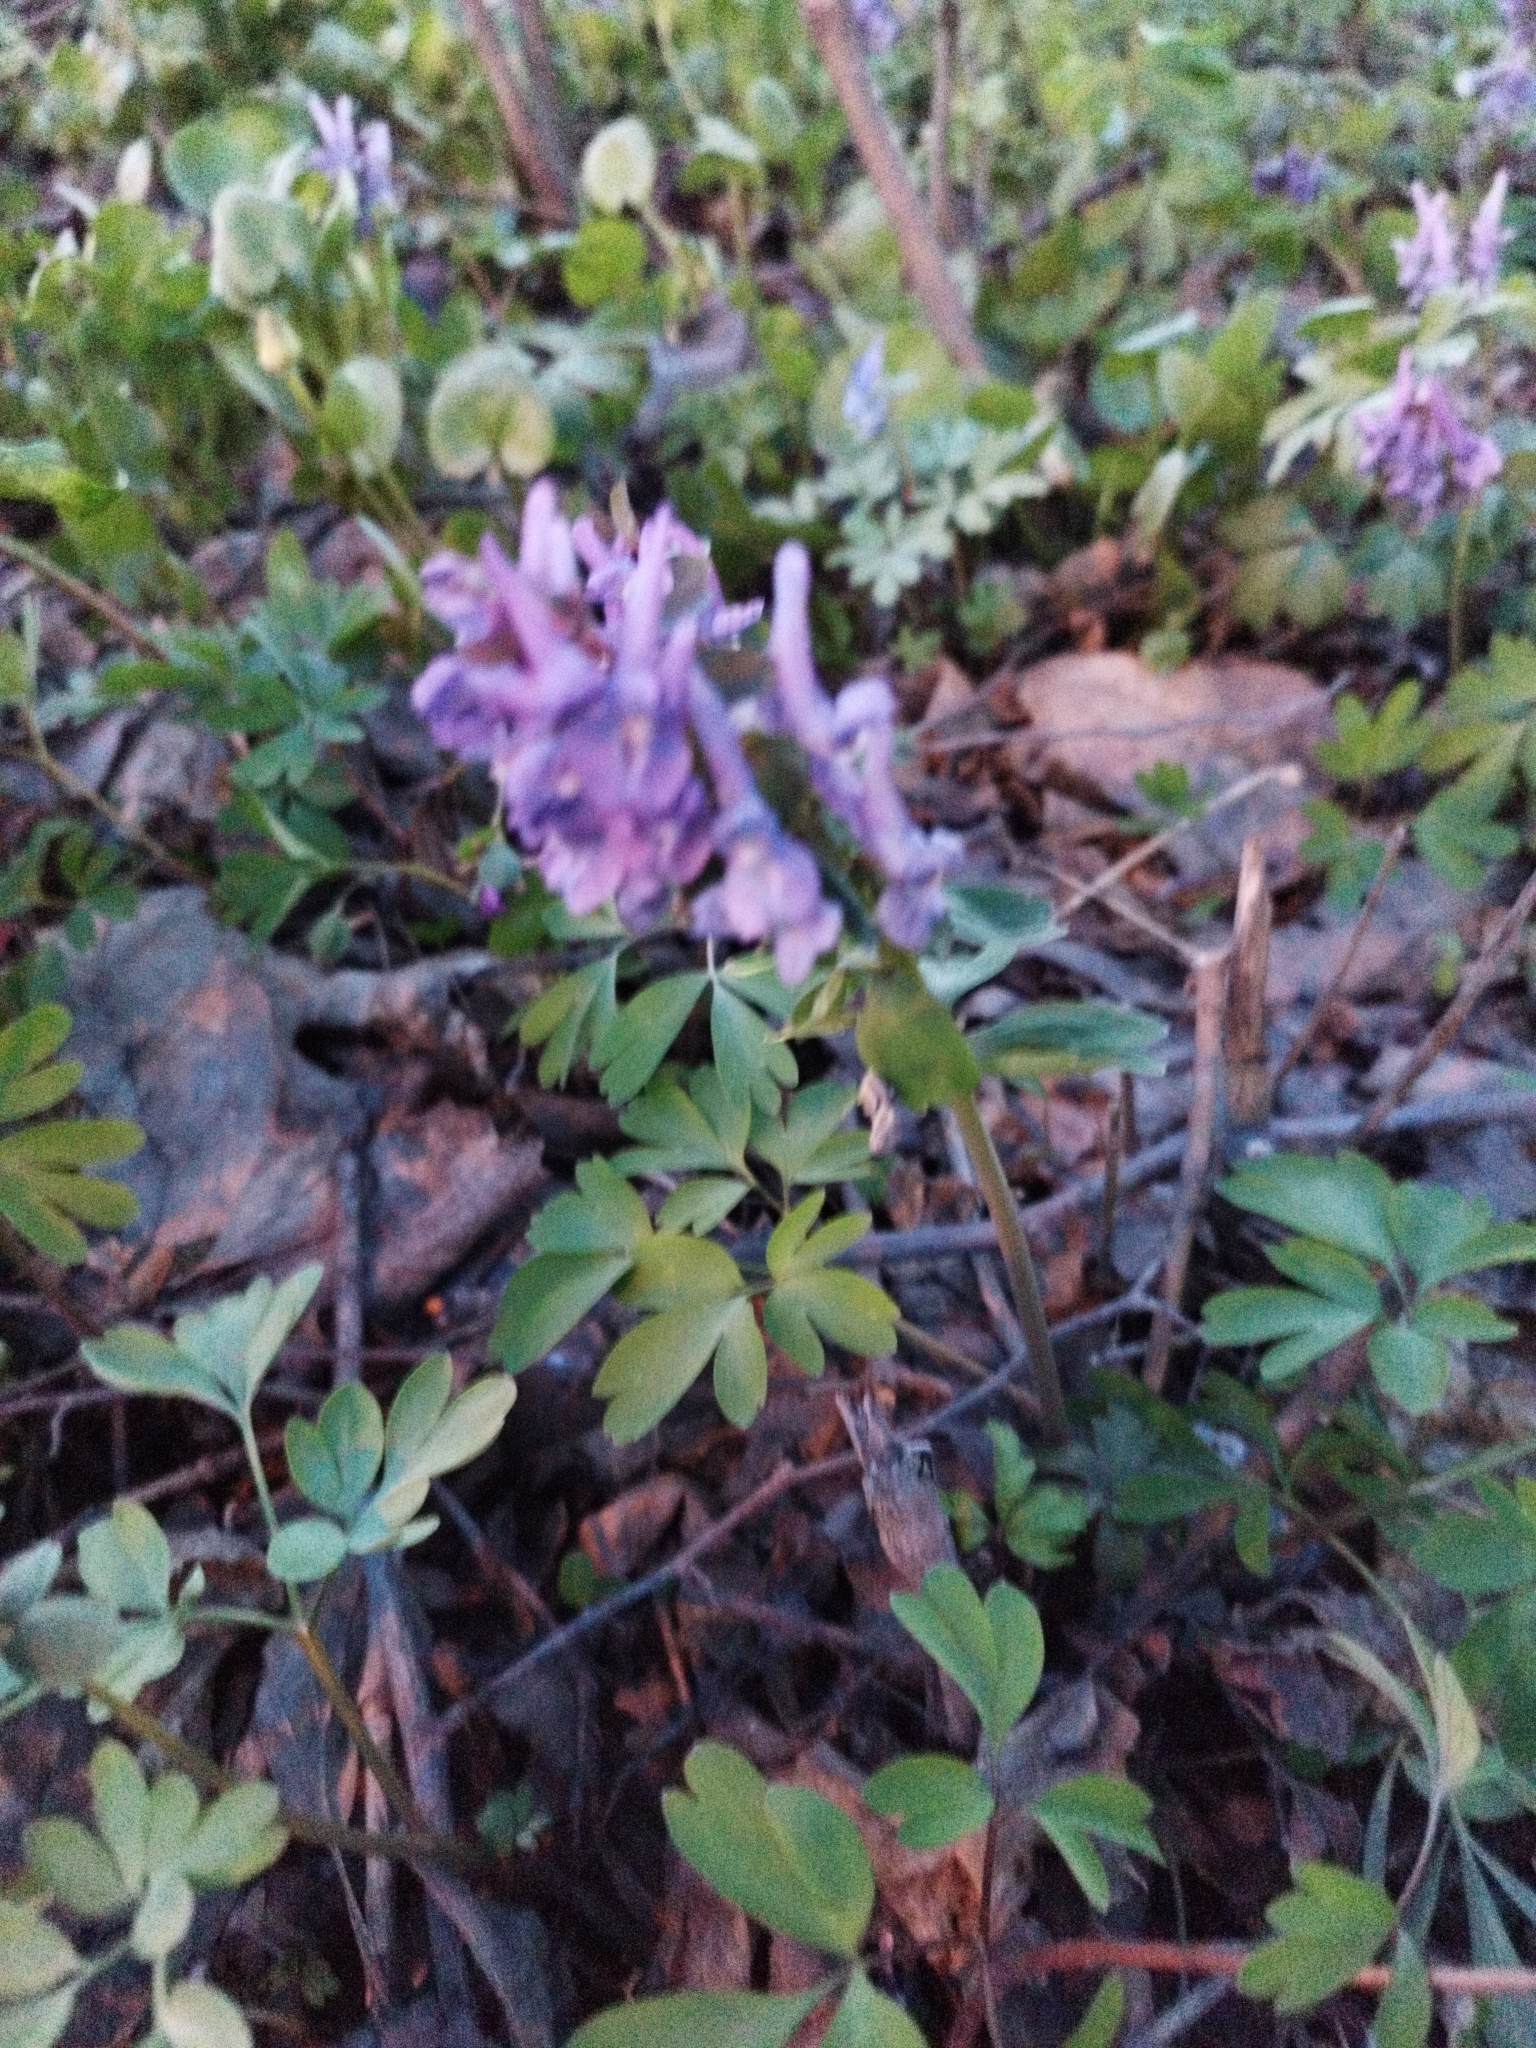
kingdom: Plantae
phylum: Tracheophyta
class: Magnoliopsida
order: Ranunculales
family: Papaveraceae
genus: Corydalis
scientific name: Corydalis solida
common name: Bird-in-a-bush
